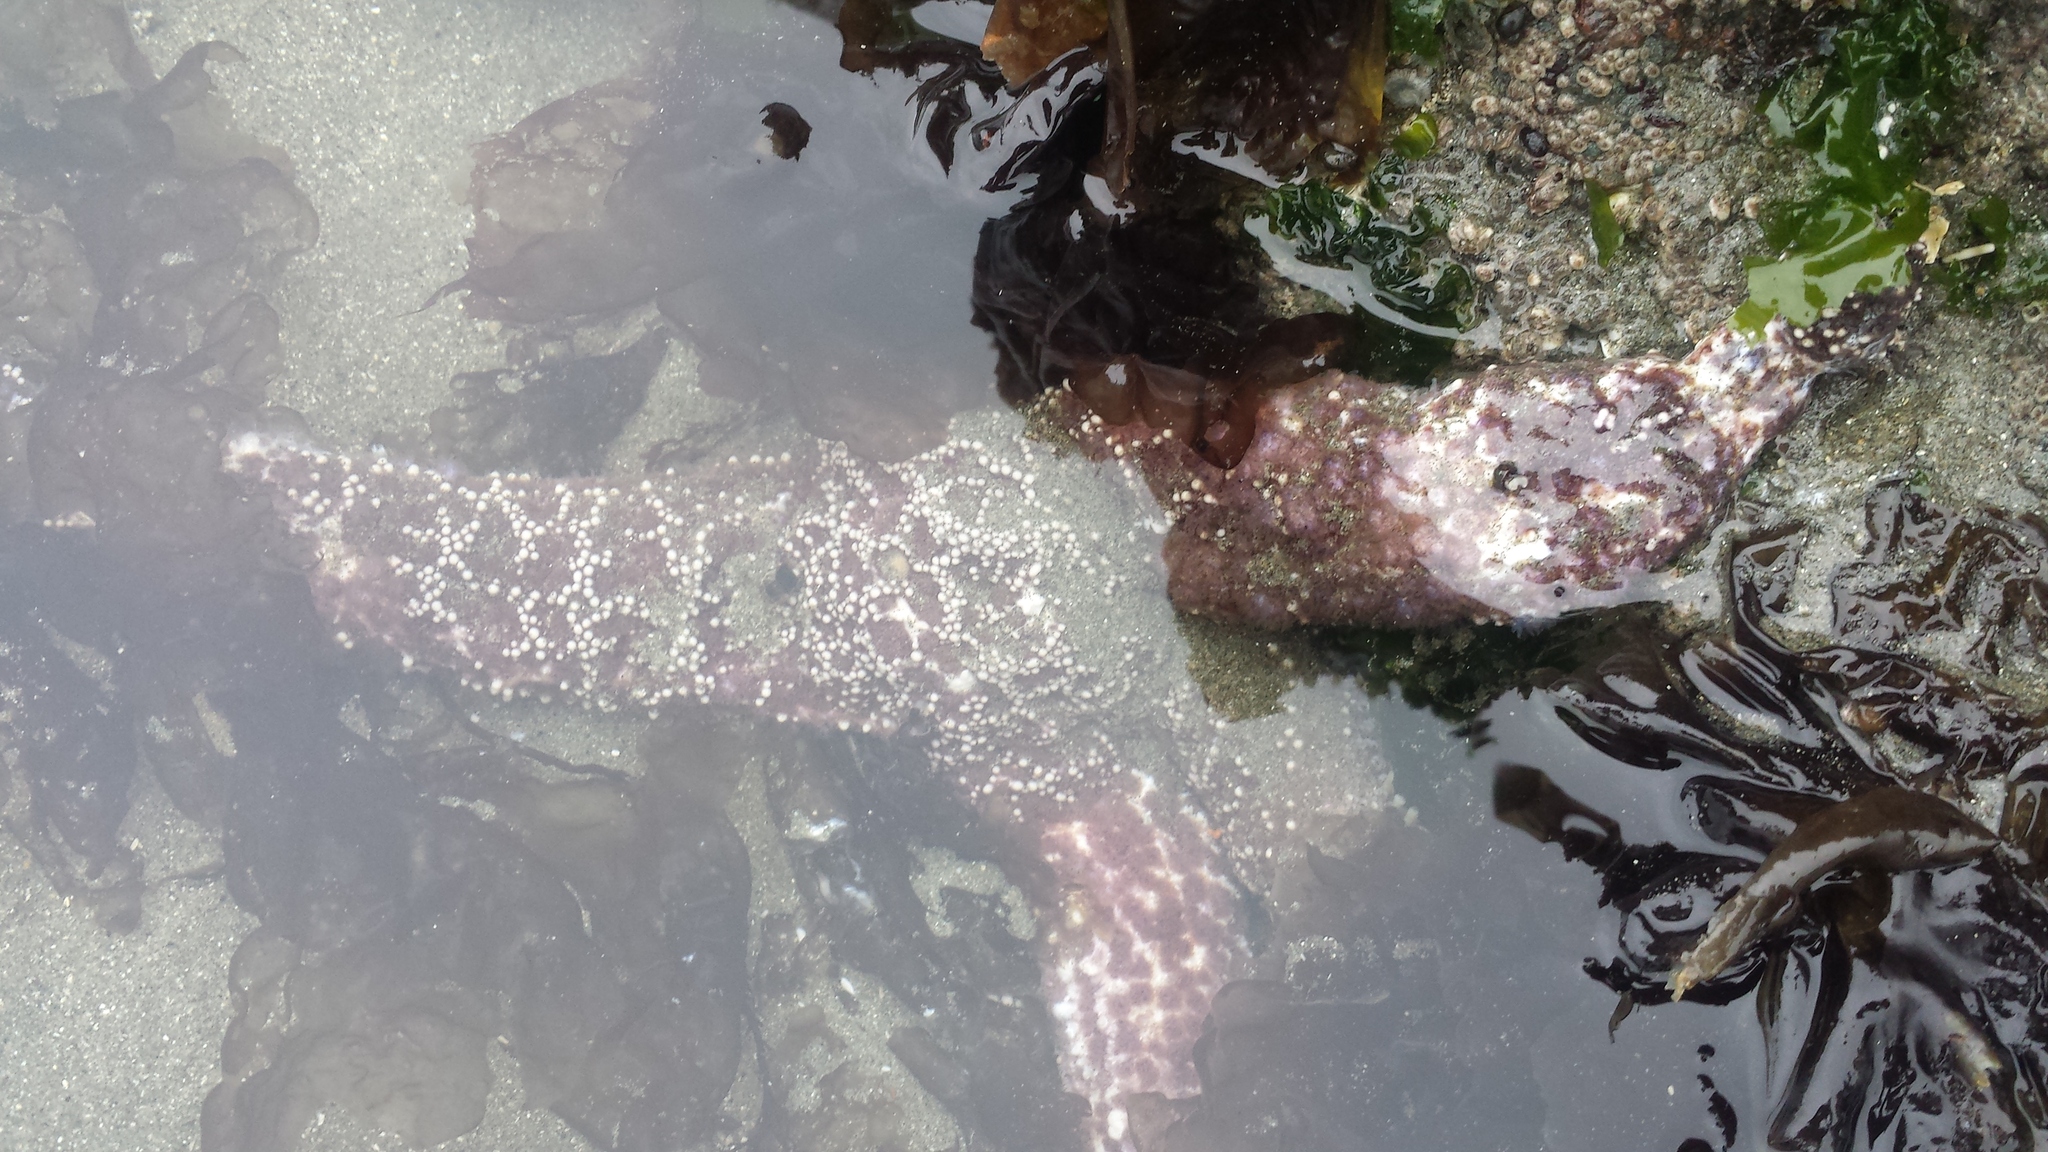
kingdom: Animalia
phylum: Echinodermata
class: Asteroidea
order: Forcipulatida
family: Asteriidae
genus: Pisaster
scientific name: Pisaster ochraceus
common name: Ochre stars
